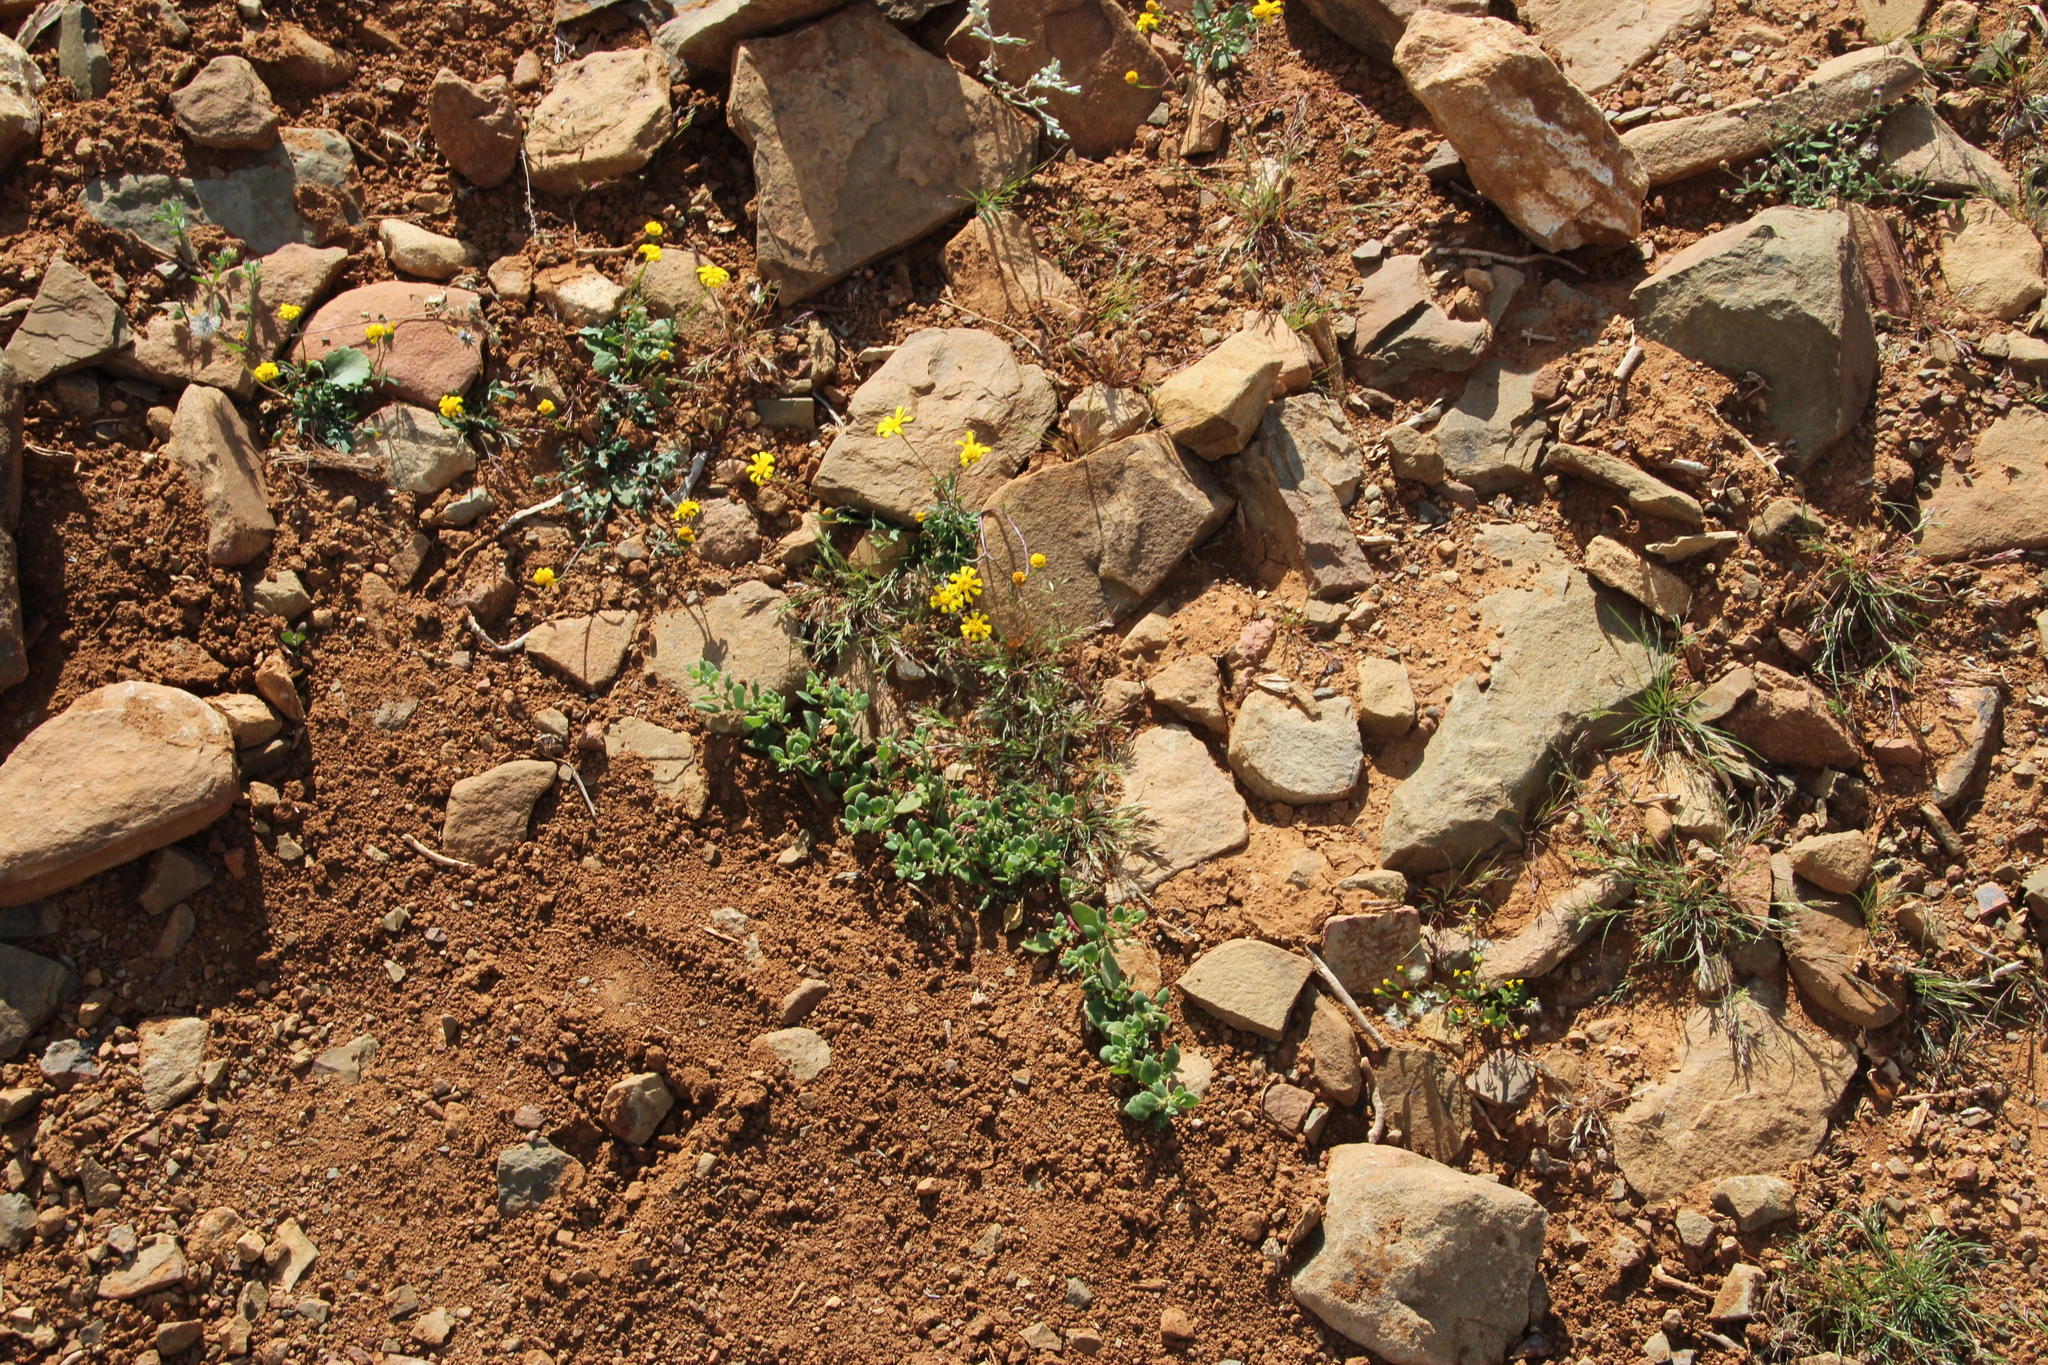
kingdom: Plantae
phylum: Tracheophyta
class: Magnoliopsida
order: Caryophyllales
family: Aizoaceae
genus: Tetragonia
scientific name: Tetragonia microptera
